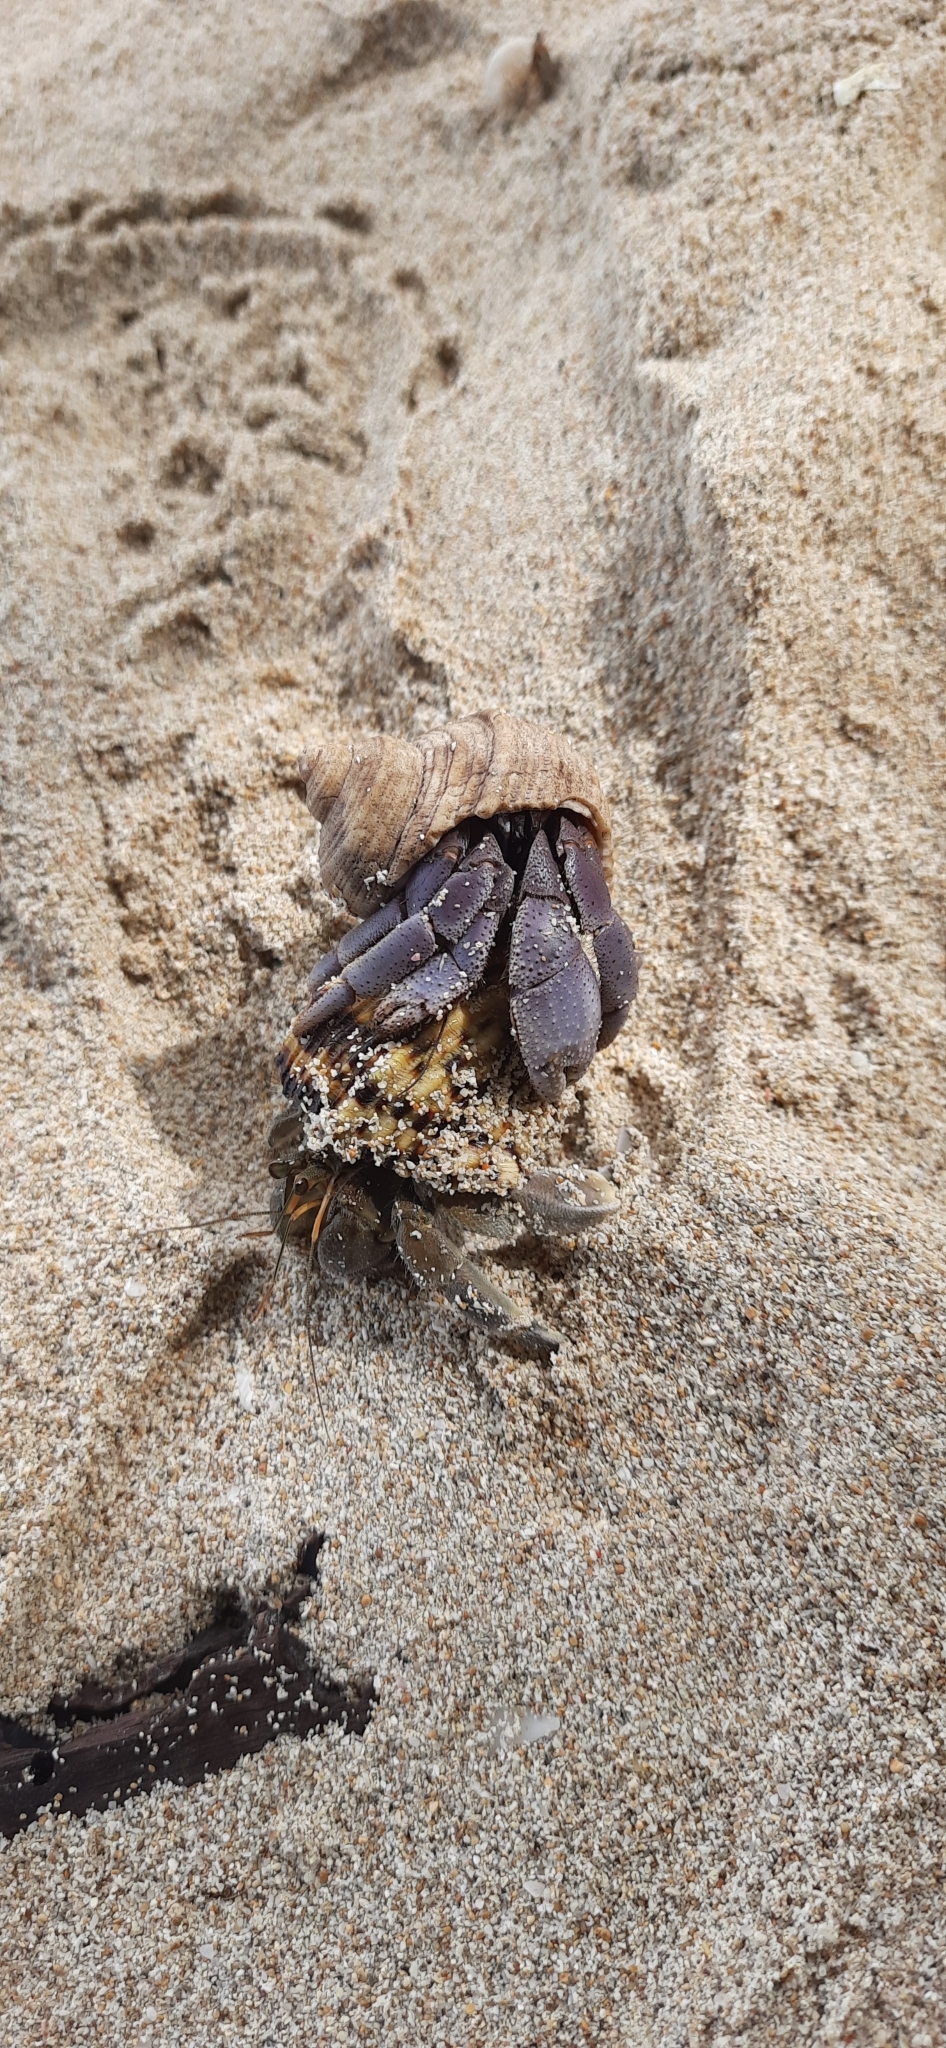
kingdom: Animalia
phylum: Arthropoda
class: Malacostraca
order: Decapoda
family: Coenobitidae
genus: Coenobita
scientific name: Coenobita violascens
